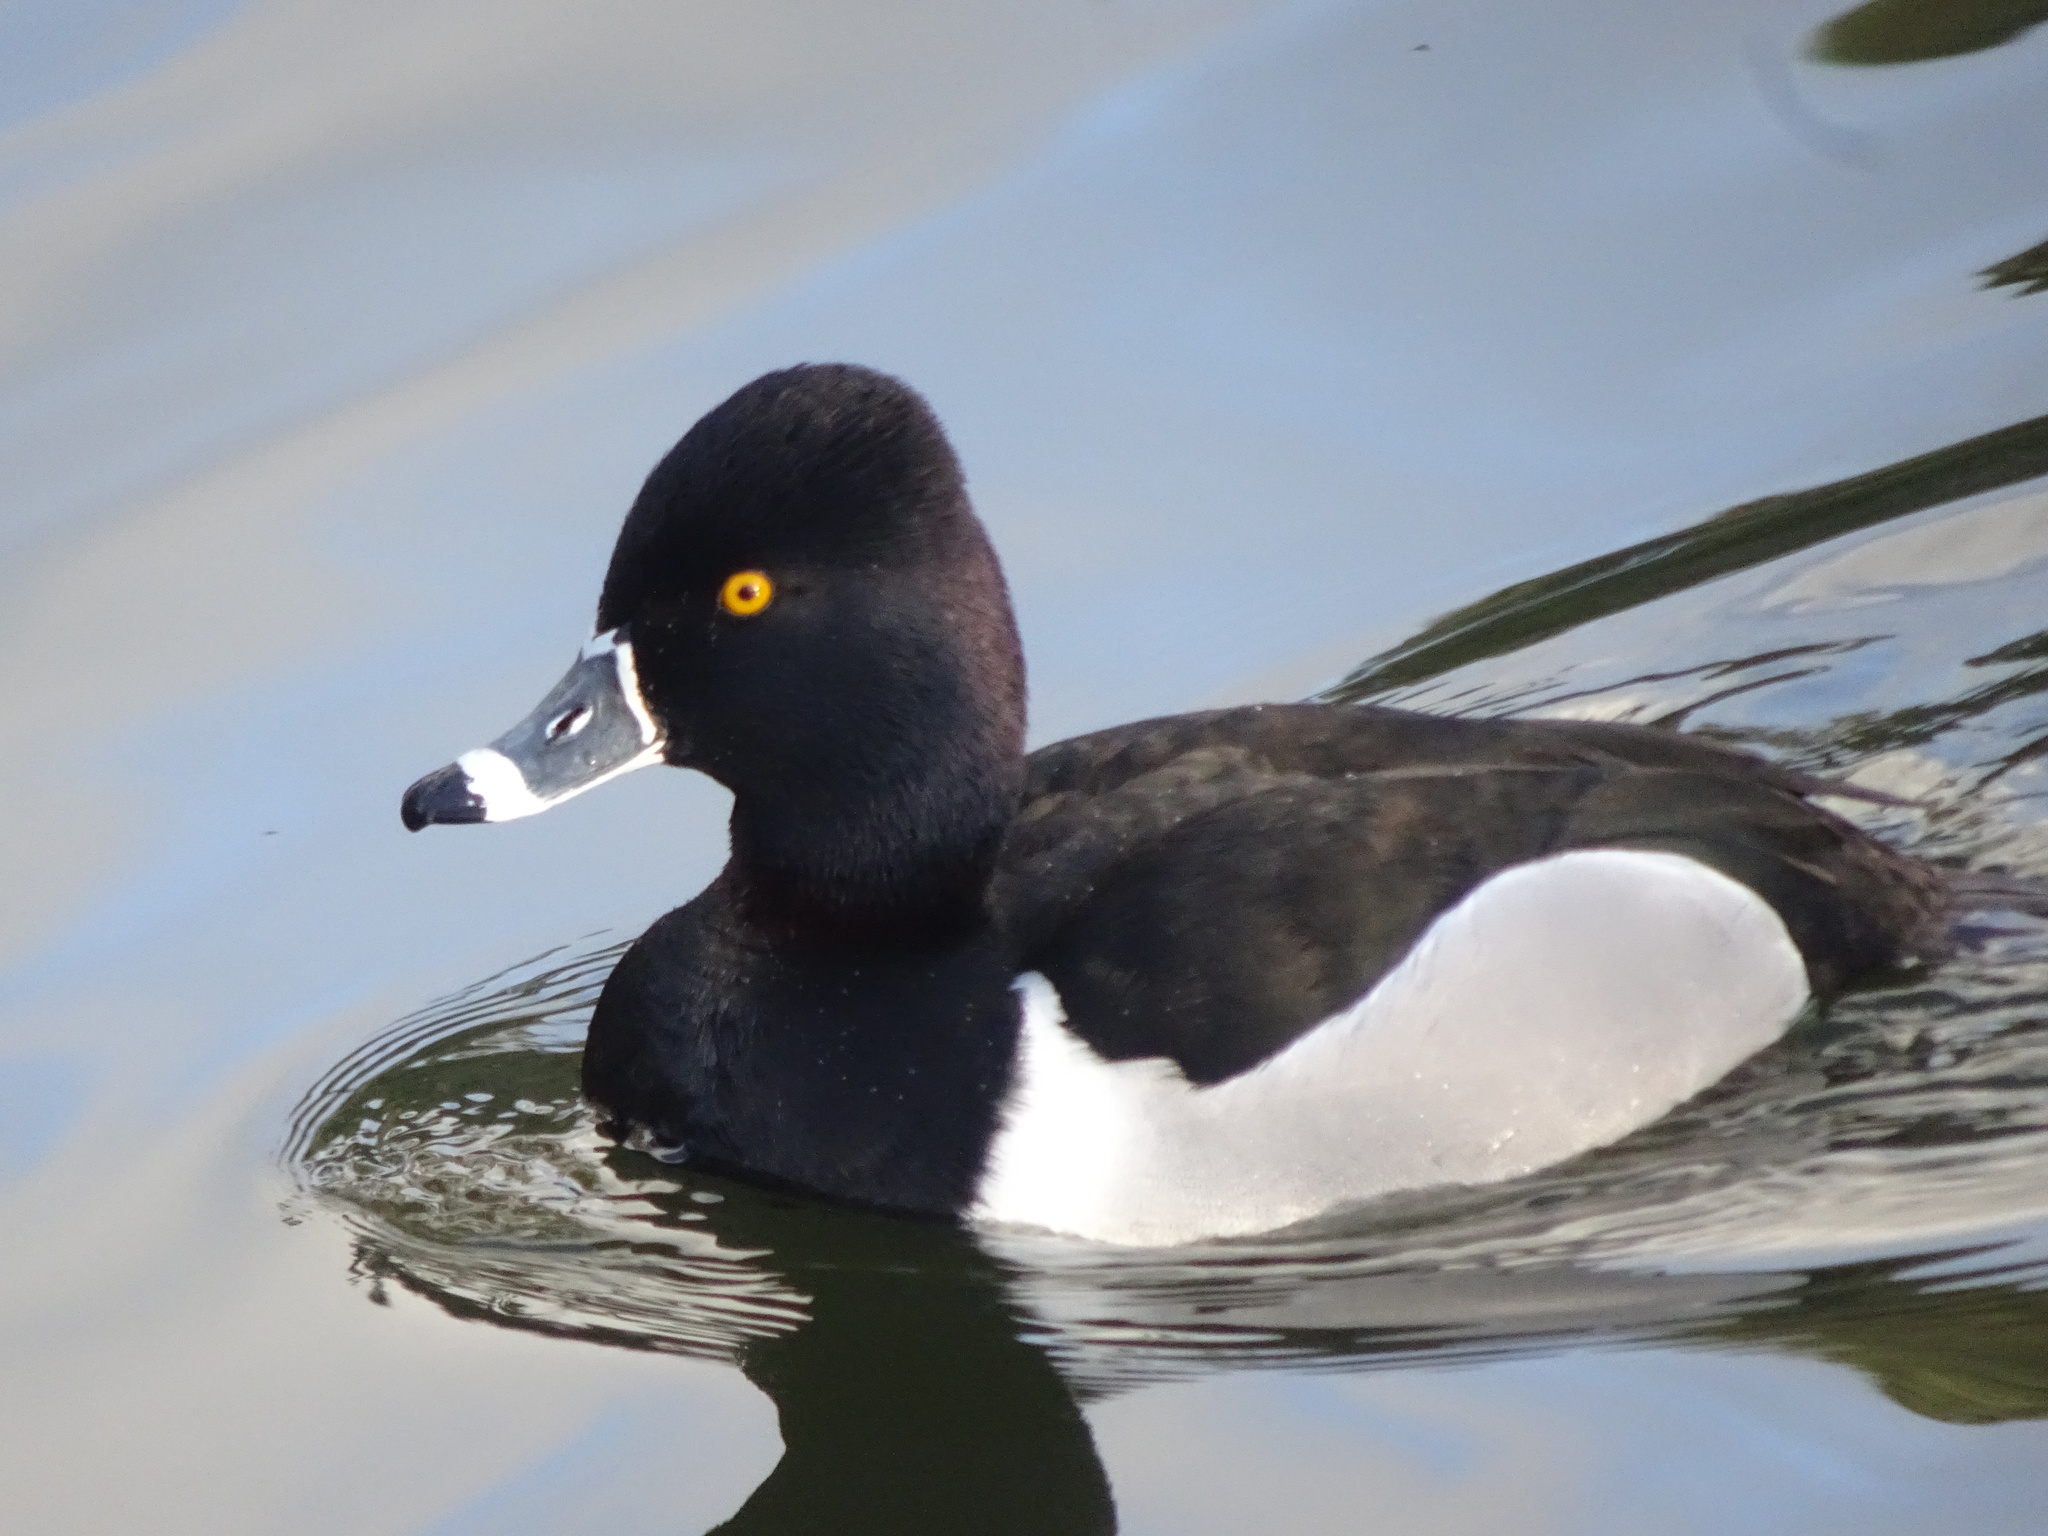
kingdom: Animalia
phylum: Chordata
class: Aves
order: Anseriformes
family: Anatidae
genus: Aythya
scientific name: Aythya collaris
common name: Ring-necked duck
